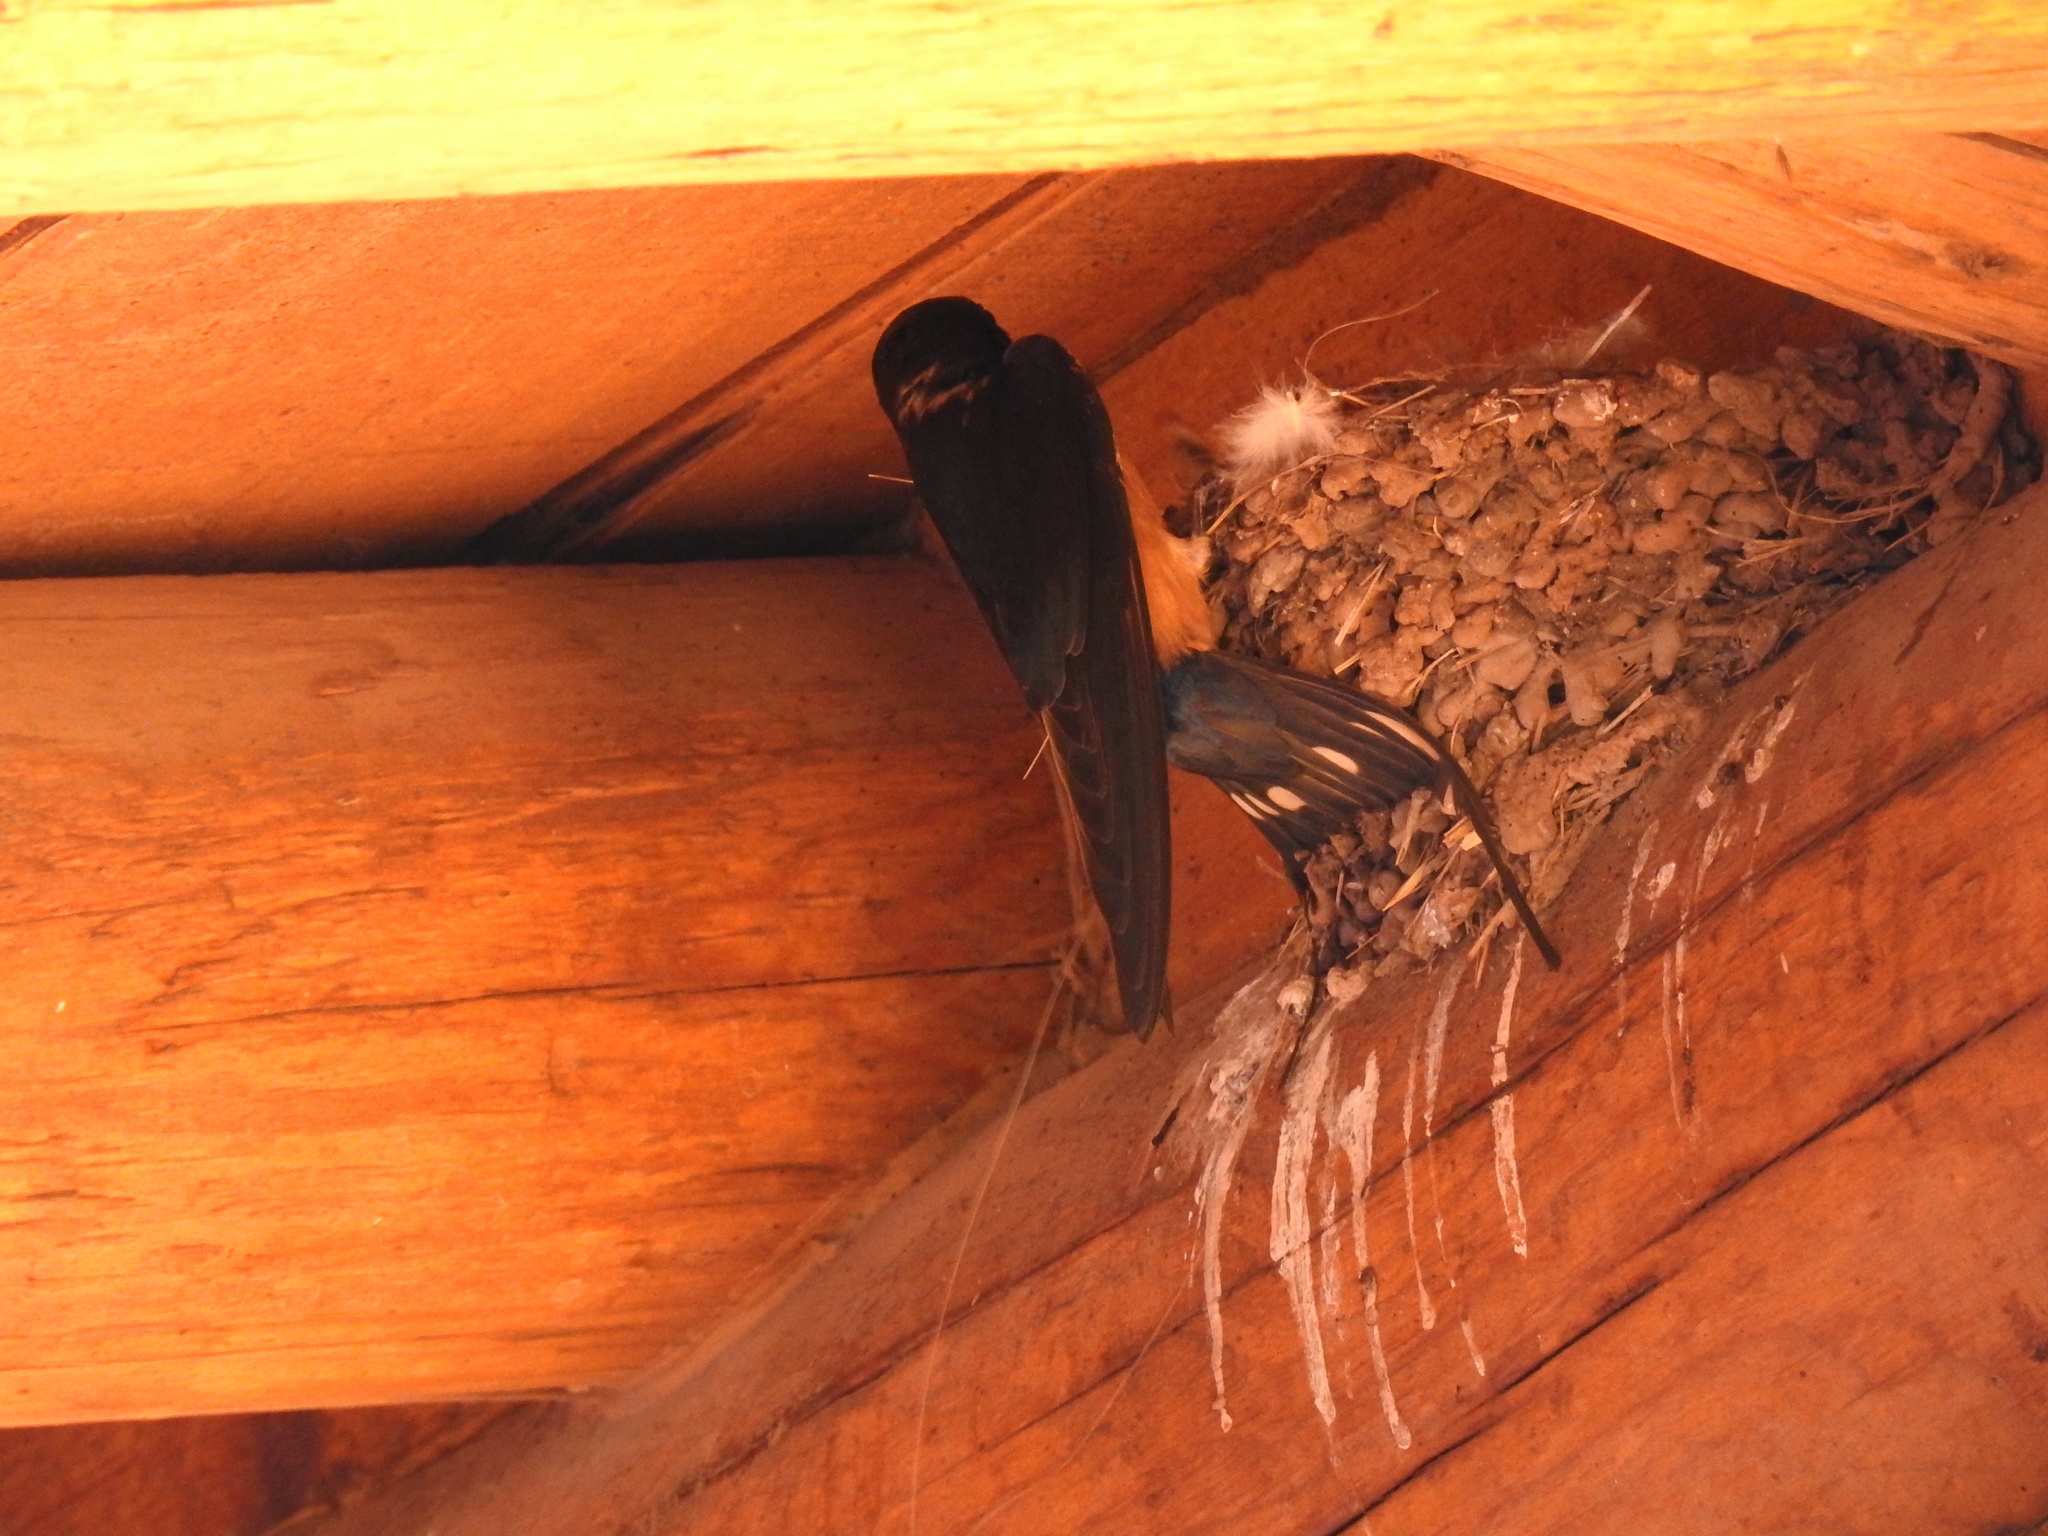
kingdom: Animalia
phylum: Chordata
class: Aves
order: Passeriformes
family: Hirundinidae
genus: Hirundo
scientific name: Hirundo rustica
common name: Barn swallow
